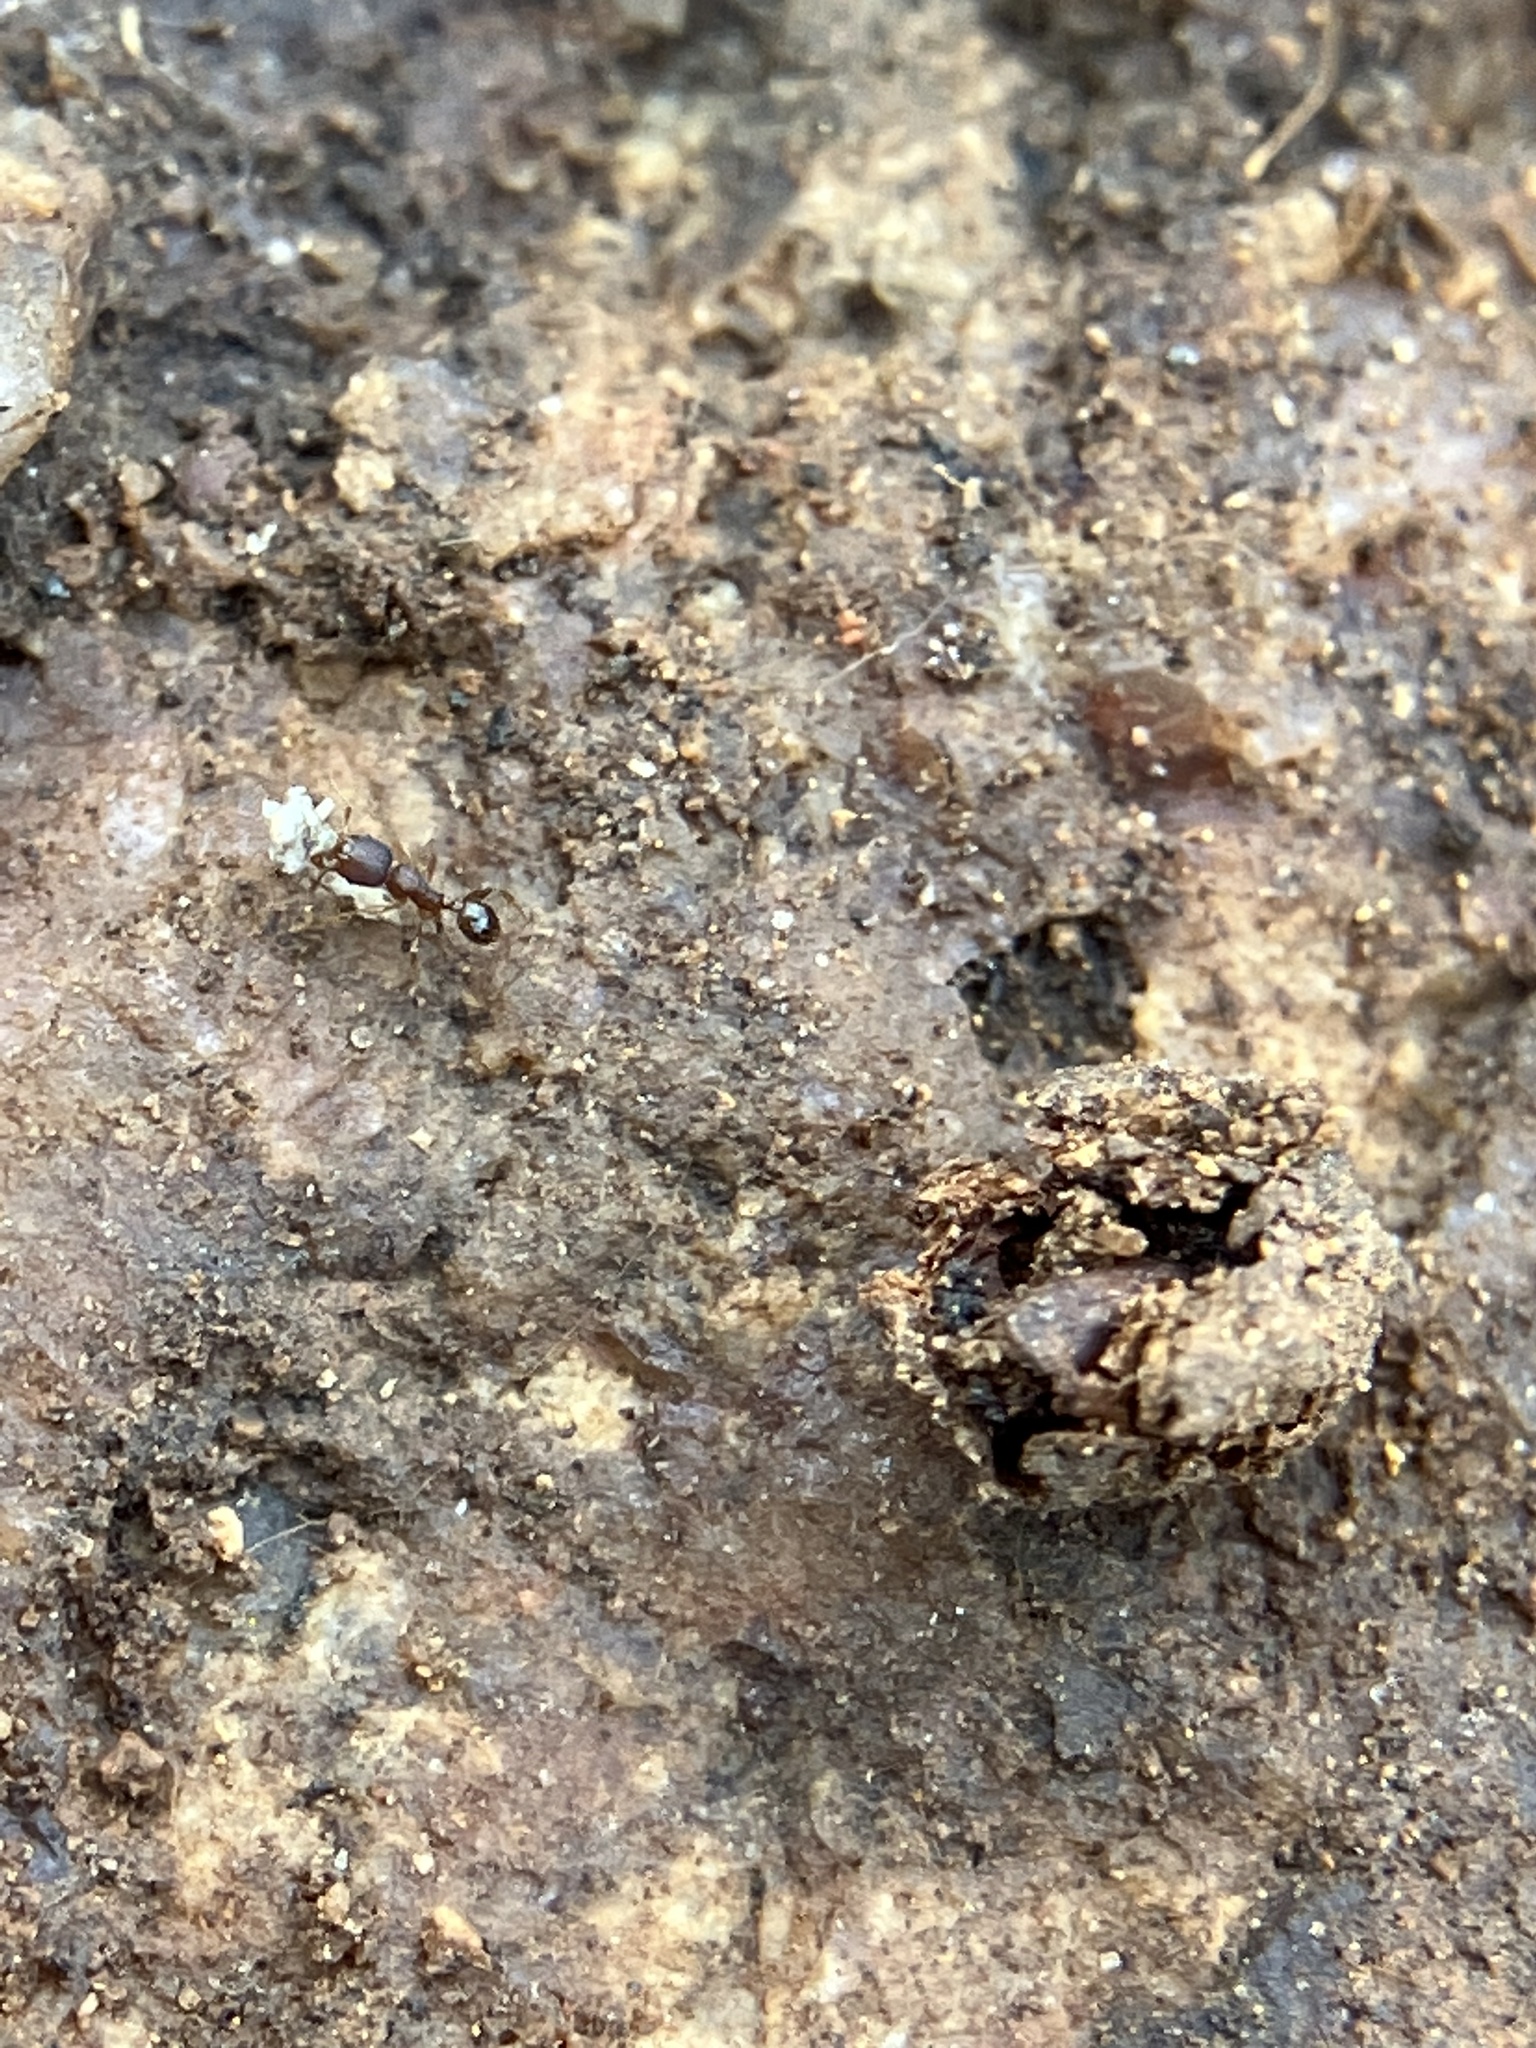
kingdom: Animalia
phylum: Arthropoda
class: Insecta
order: Hymenoptera
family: Formicidae
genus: Pheidole
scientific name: Pheidole parva
